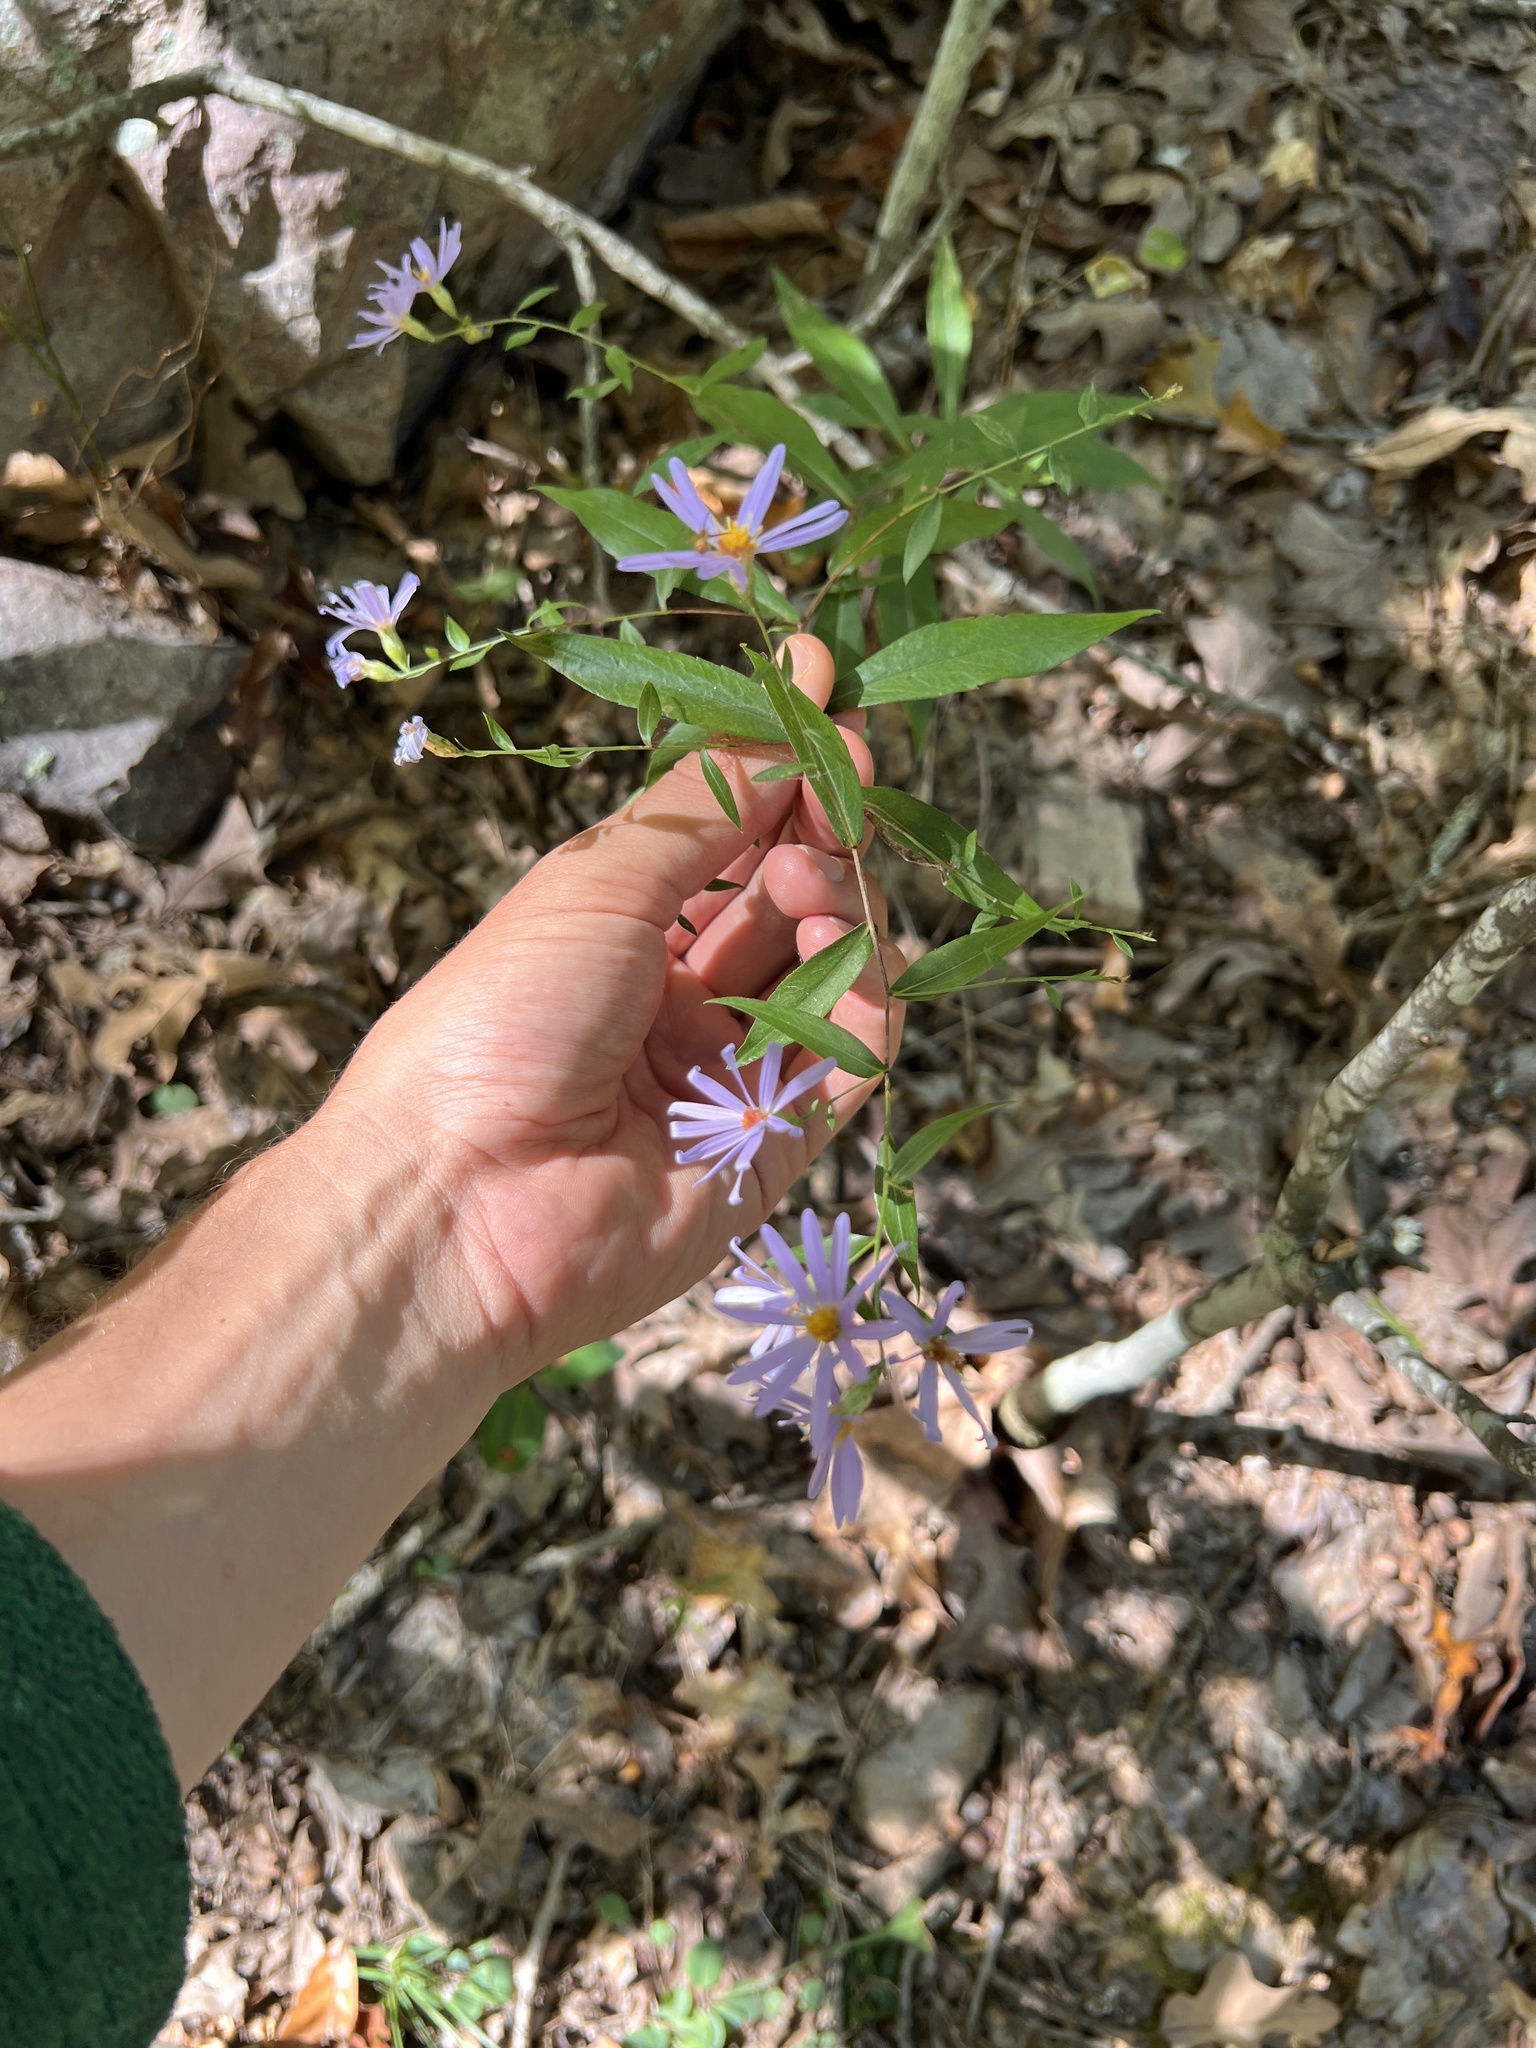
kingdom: Plantae
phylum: Tracheophyta
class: Magnoliopsida
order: Asterales
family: Asteraceae
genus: Symphyotrichum
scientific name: Symphyotrichum turbinellum
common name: Prairie aster
